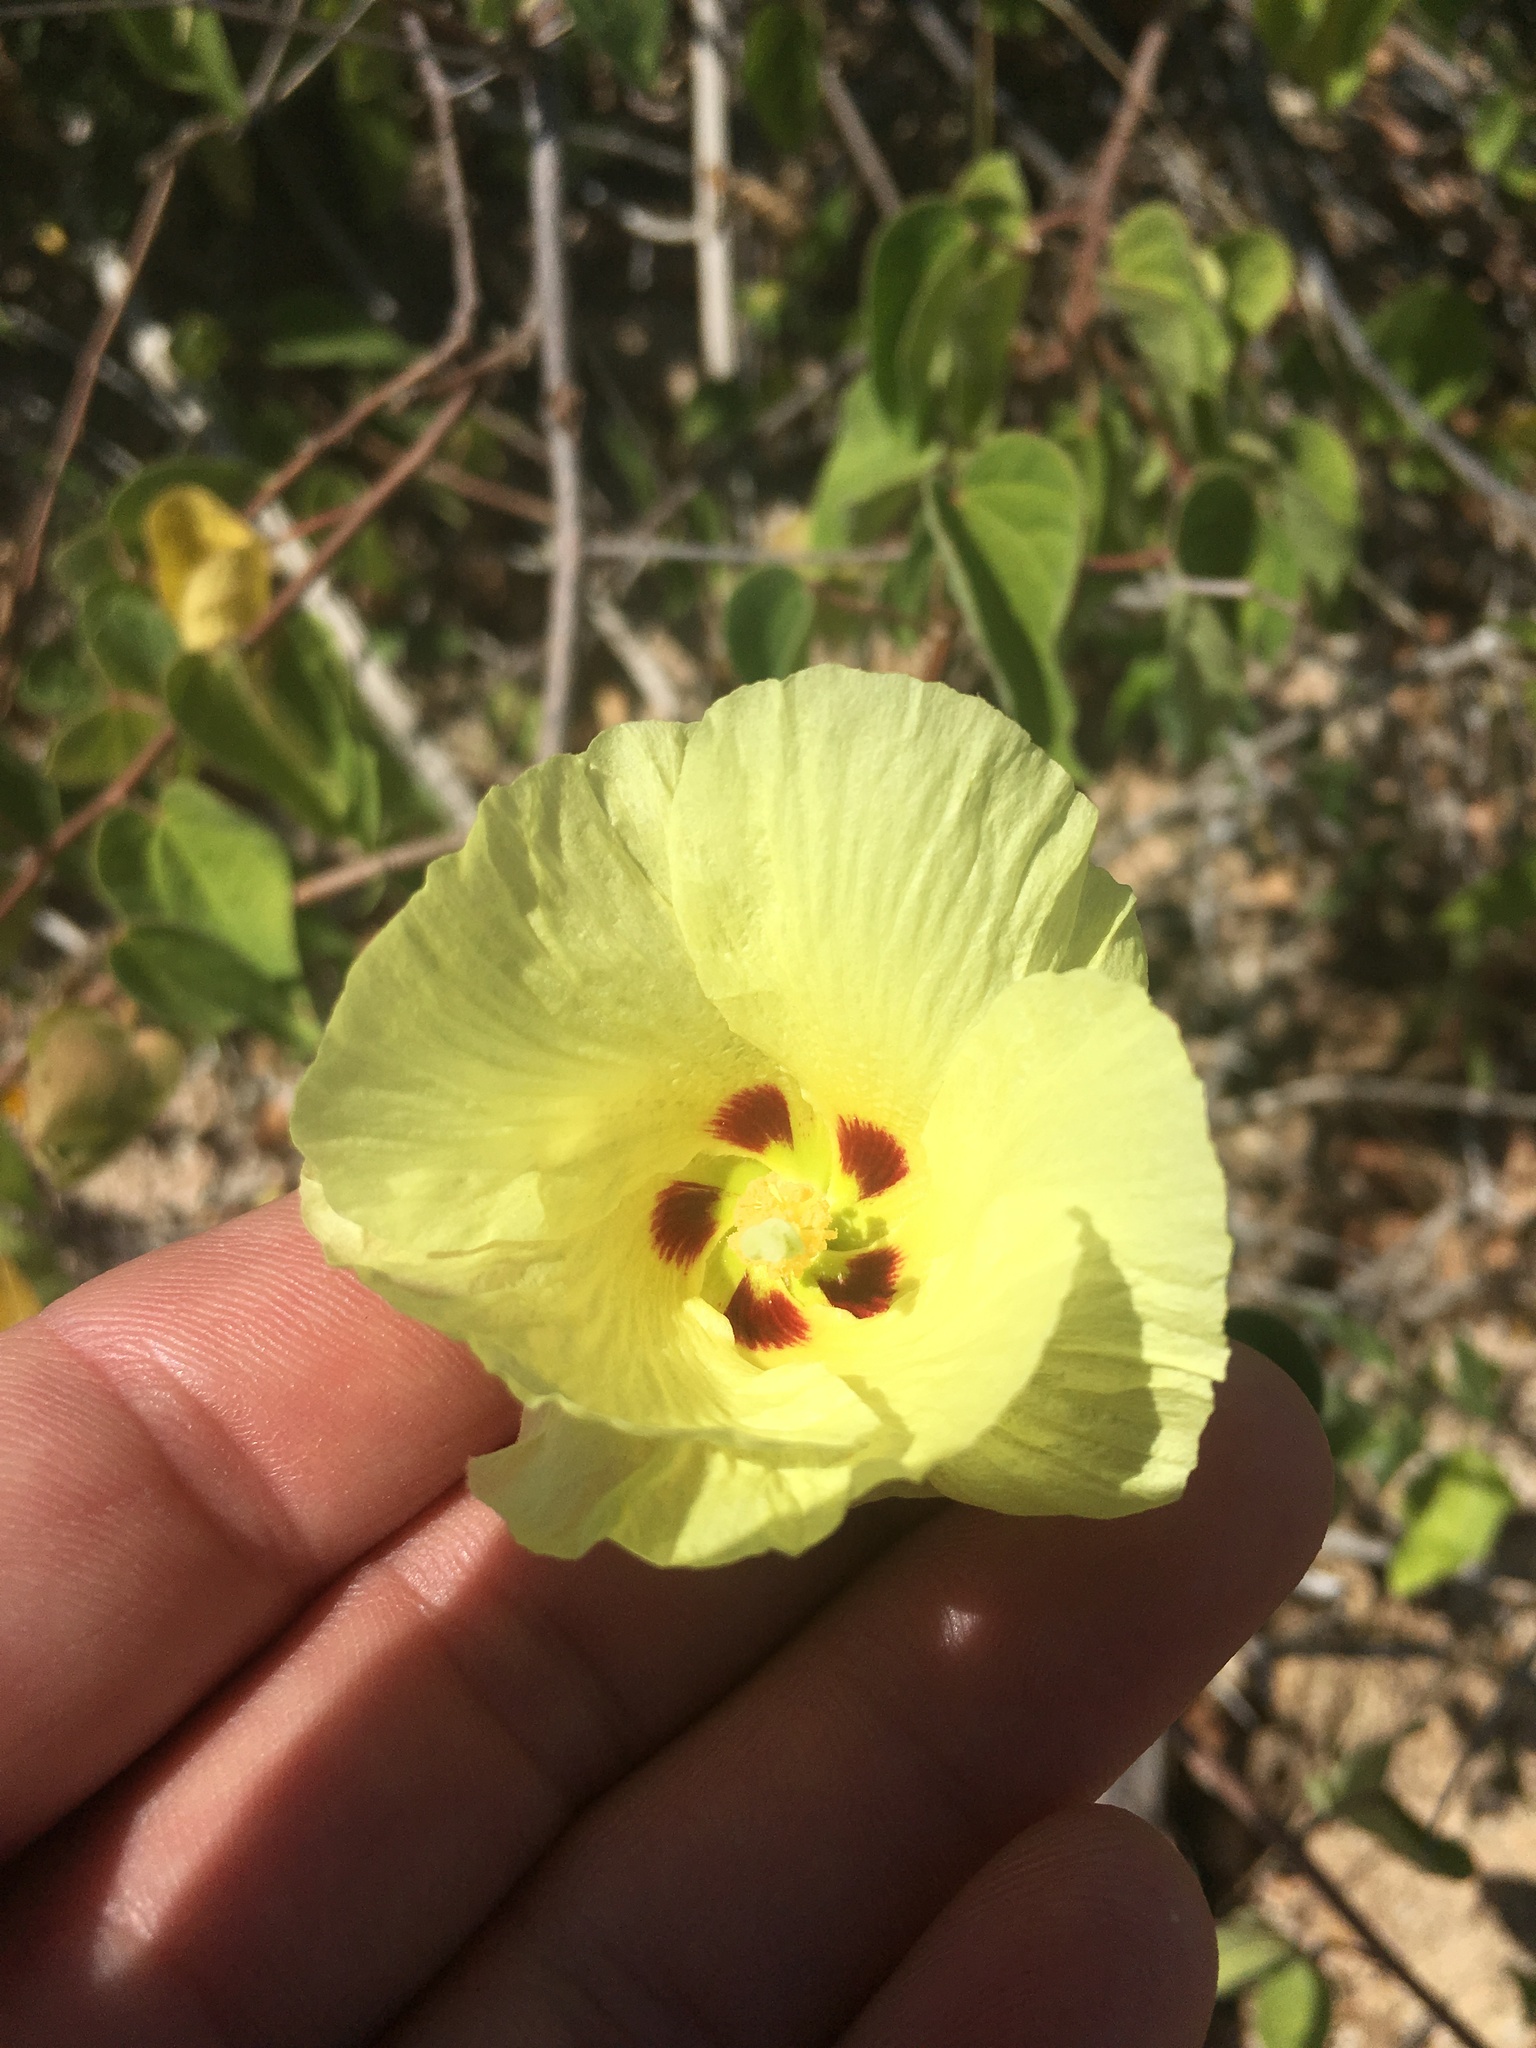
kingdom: Plantae
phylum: Tracheophyta
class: Magnoliopsida
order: Malvales
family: Malvaceae
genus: Gossypium
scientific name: Gossypium klotzschianum
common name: Galapagos cotton
